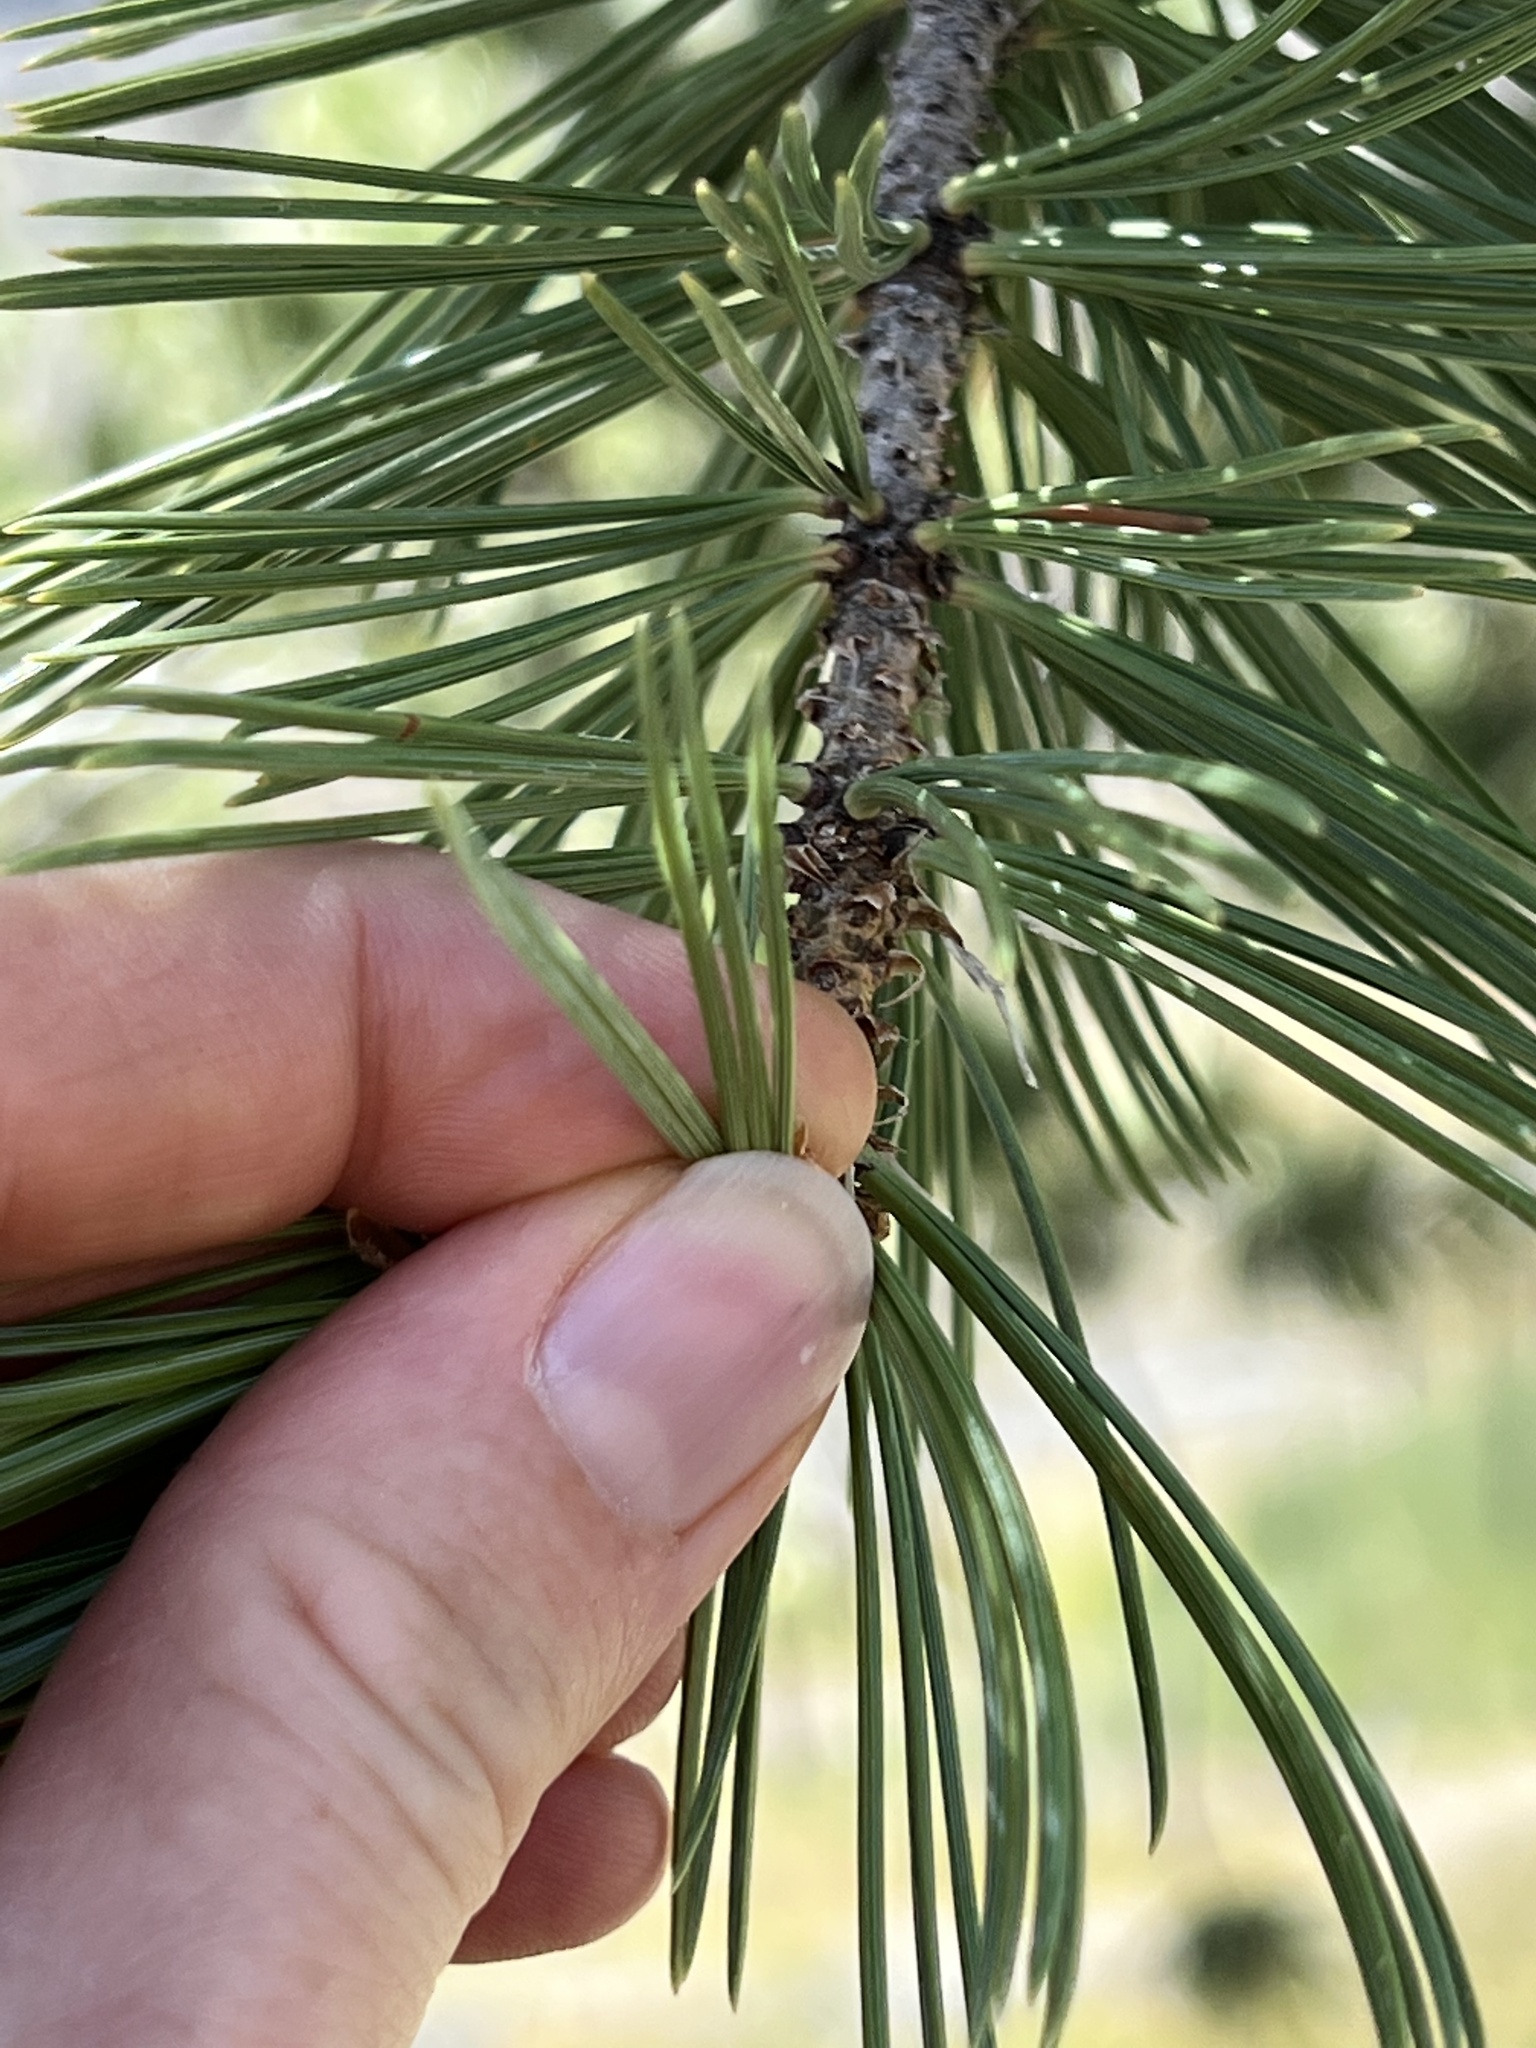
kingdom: Plantae
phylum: Tracheophyta
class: Pinopsida
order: Pinales
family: Pinaceae
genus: Pinus
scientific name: Pinus flexilis
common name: Limber pine
